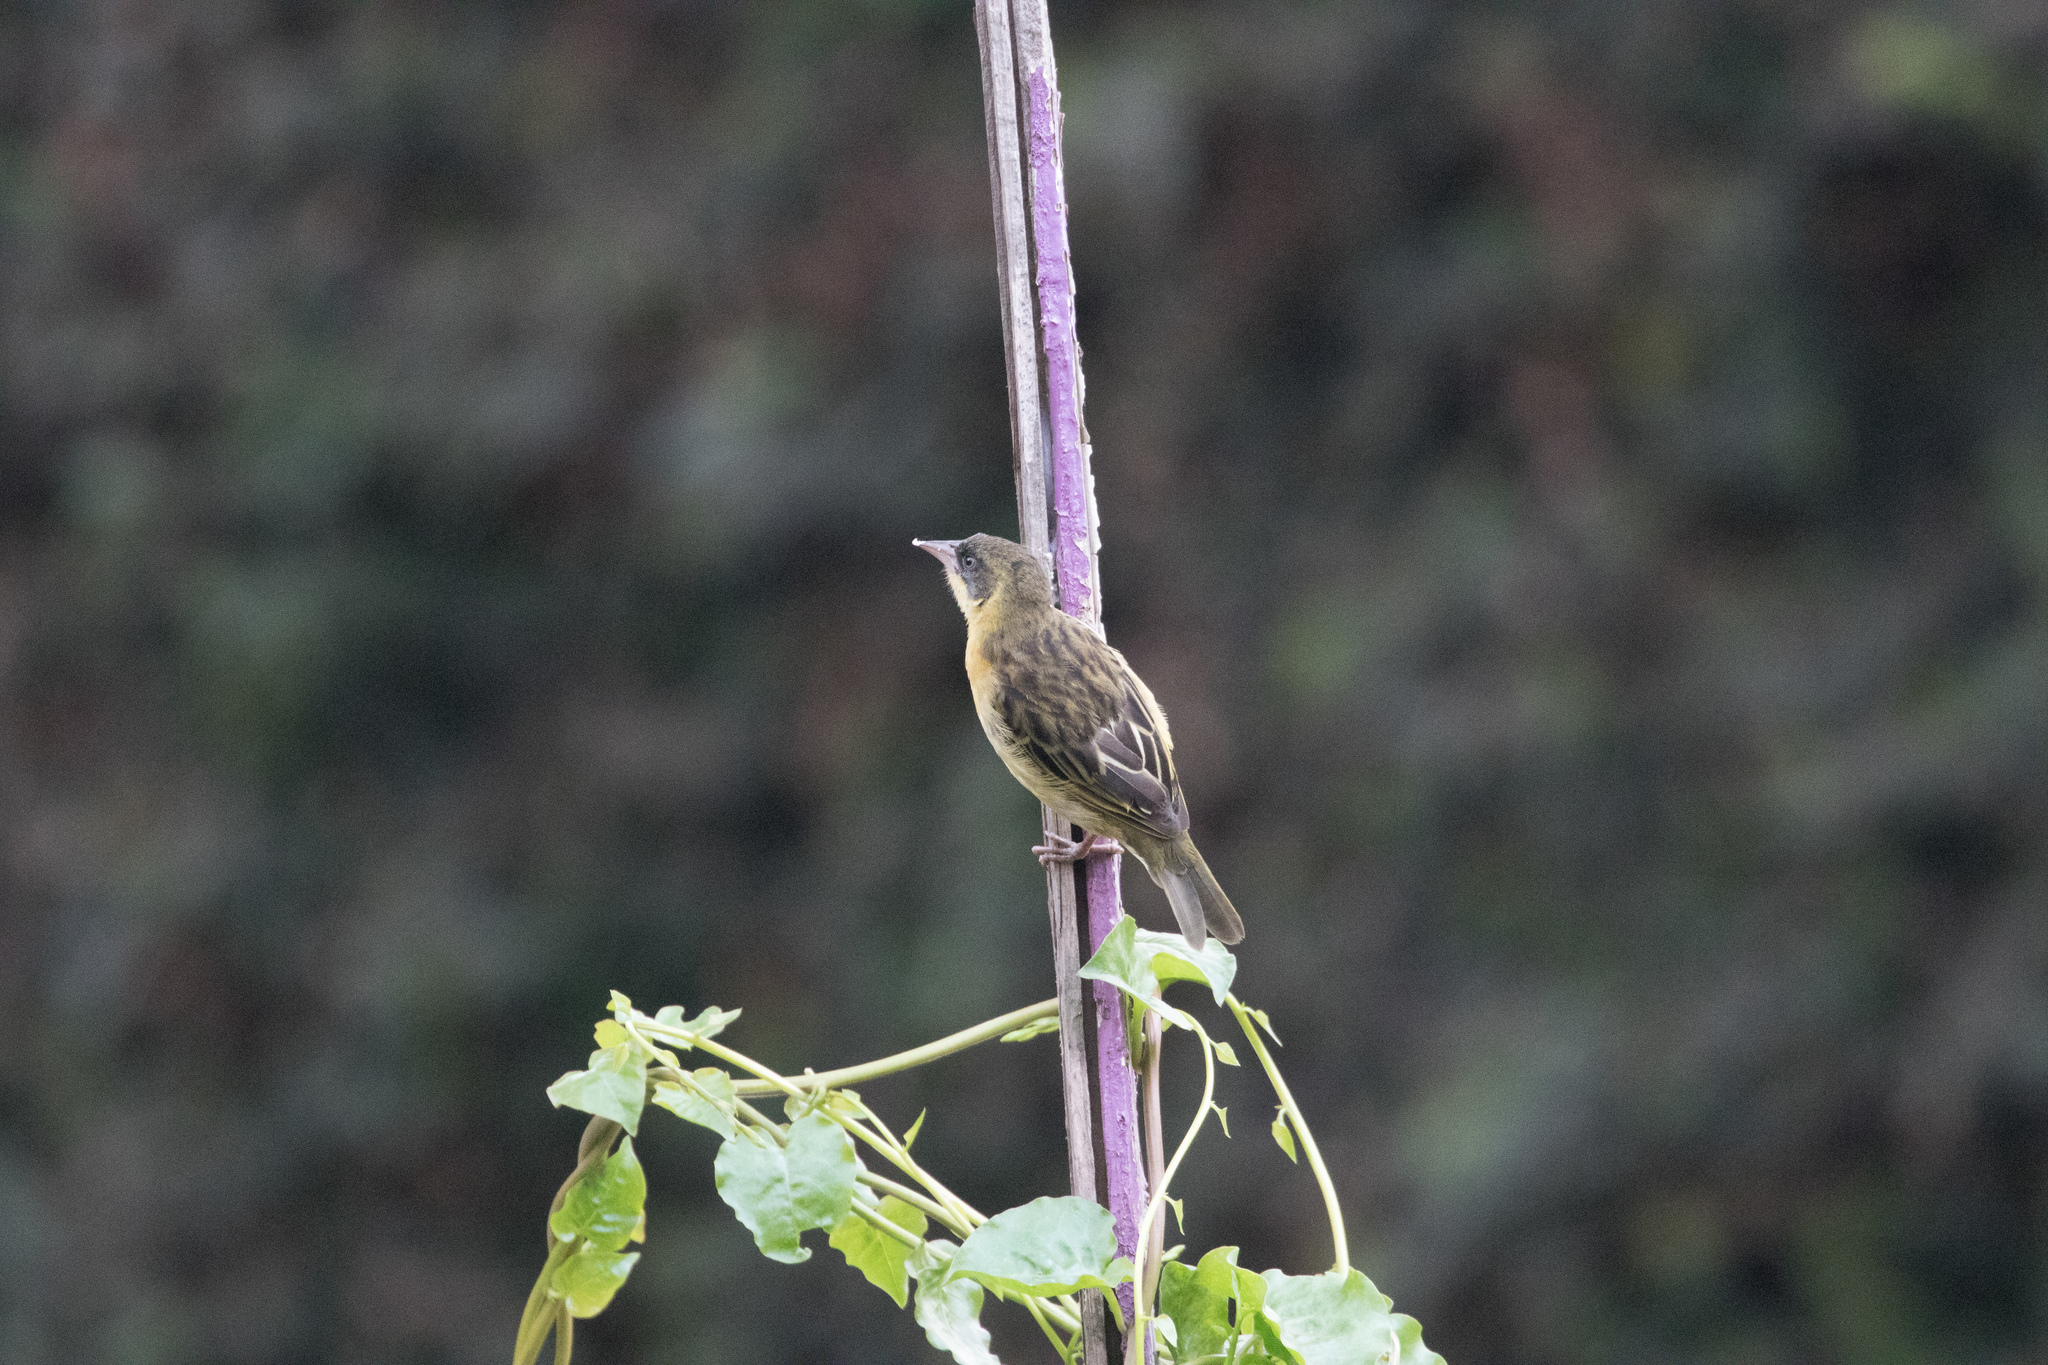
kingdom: Animalia
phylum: Chordata
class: Aves
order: Passeriformes
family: Ploceidae
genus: Ploceus
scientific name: Ploceus baglafecht
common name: Baglafecht weaver
